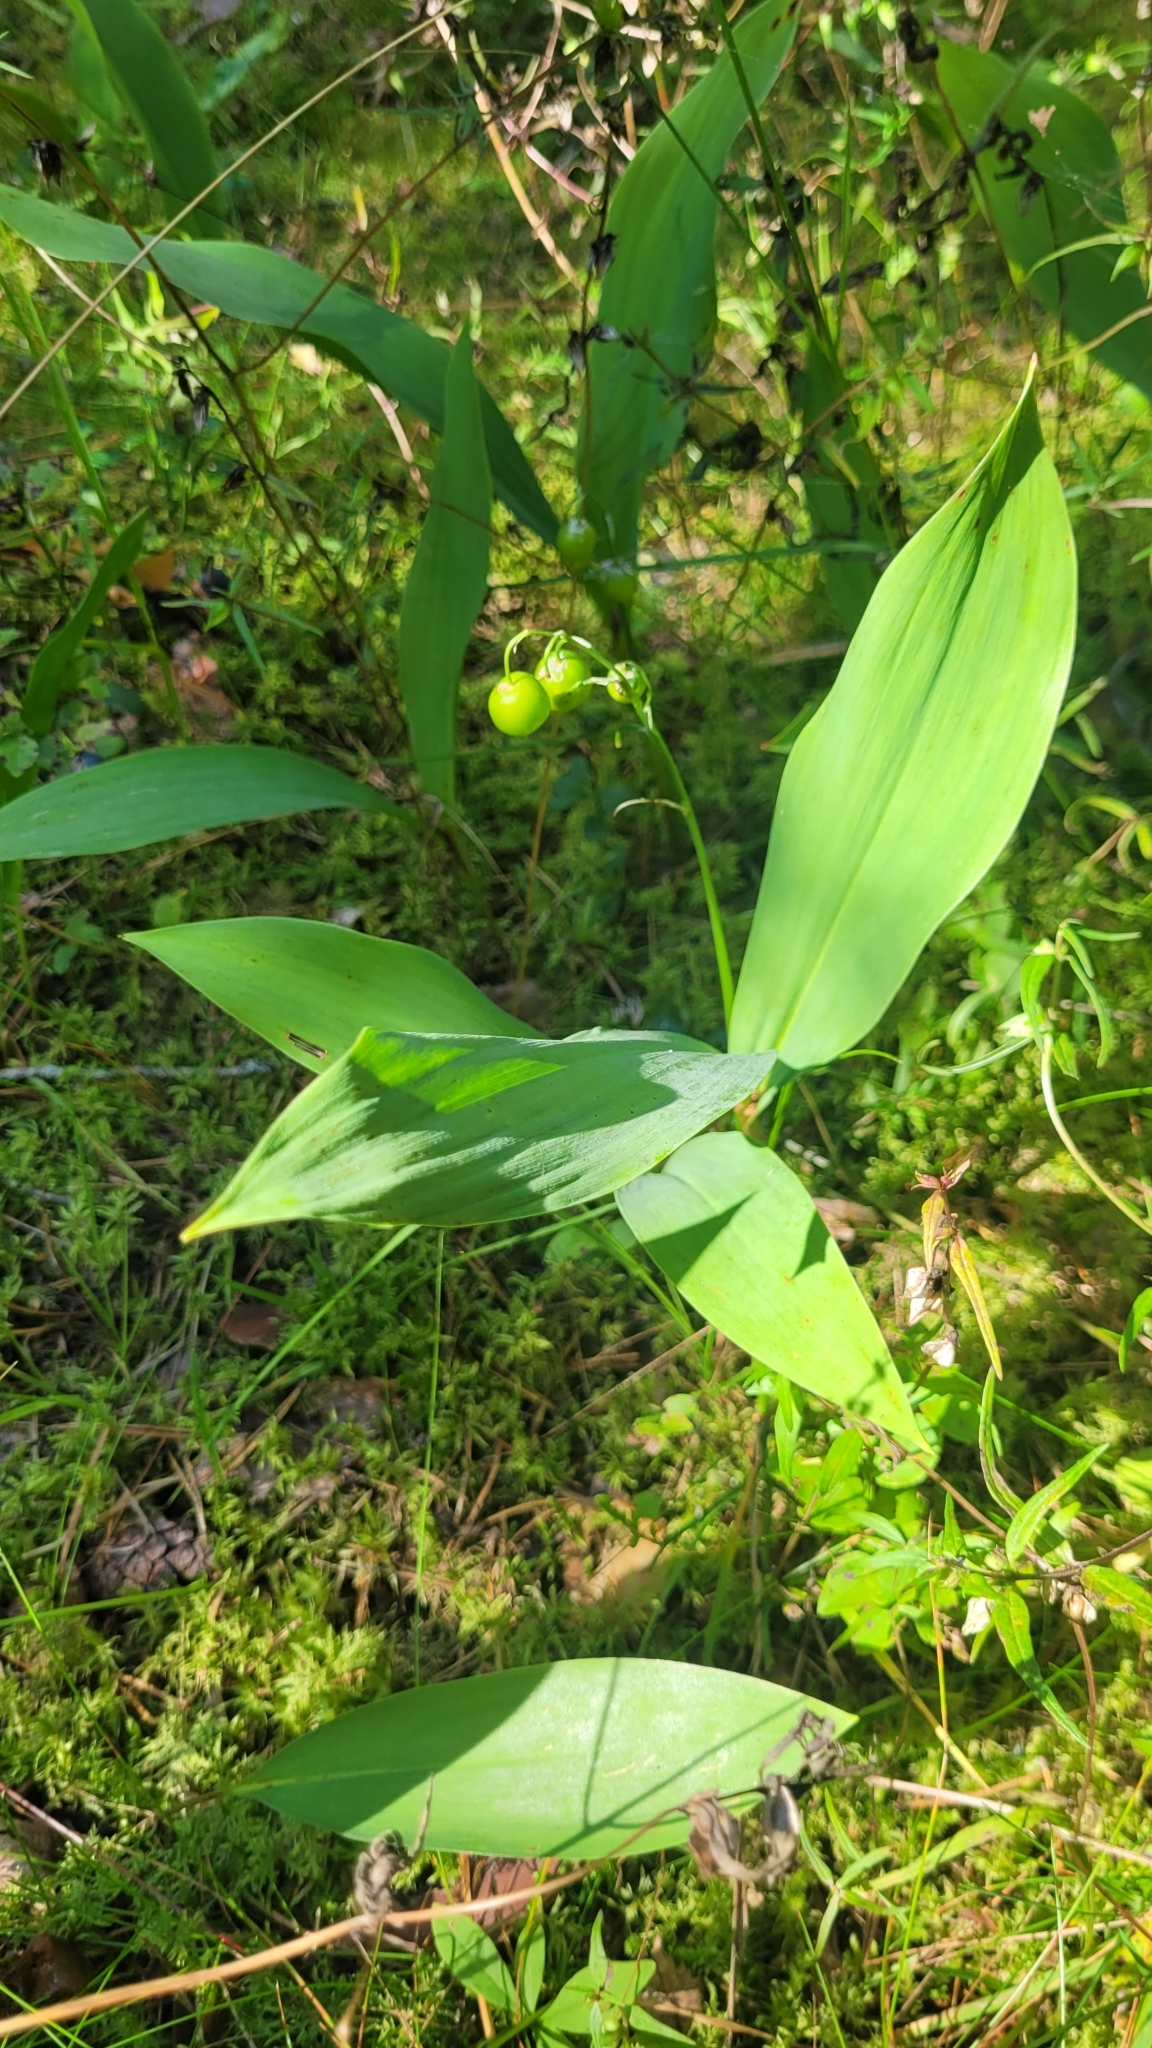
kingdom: Plantae
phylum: Tracheophyta
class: Liliopsida
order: Asparagales
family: Asparagaceae
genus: Convallaria
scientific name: Convallaria majalis
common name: Lily-of-the-valley
